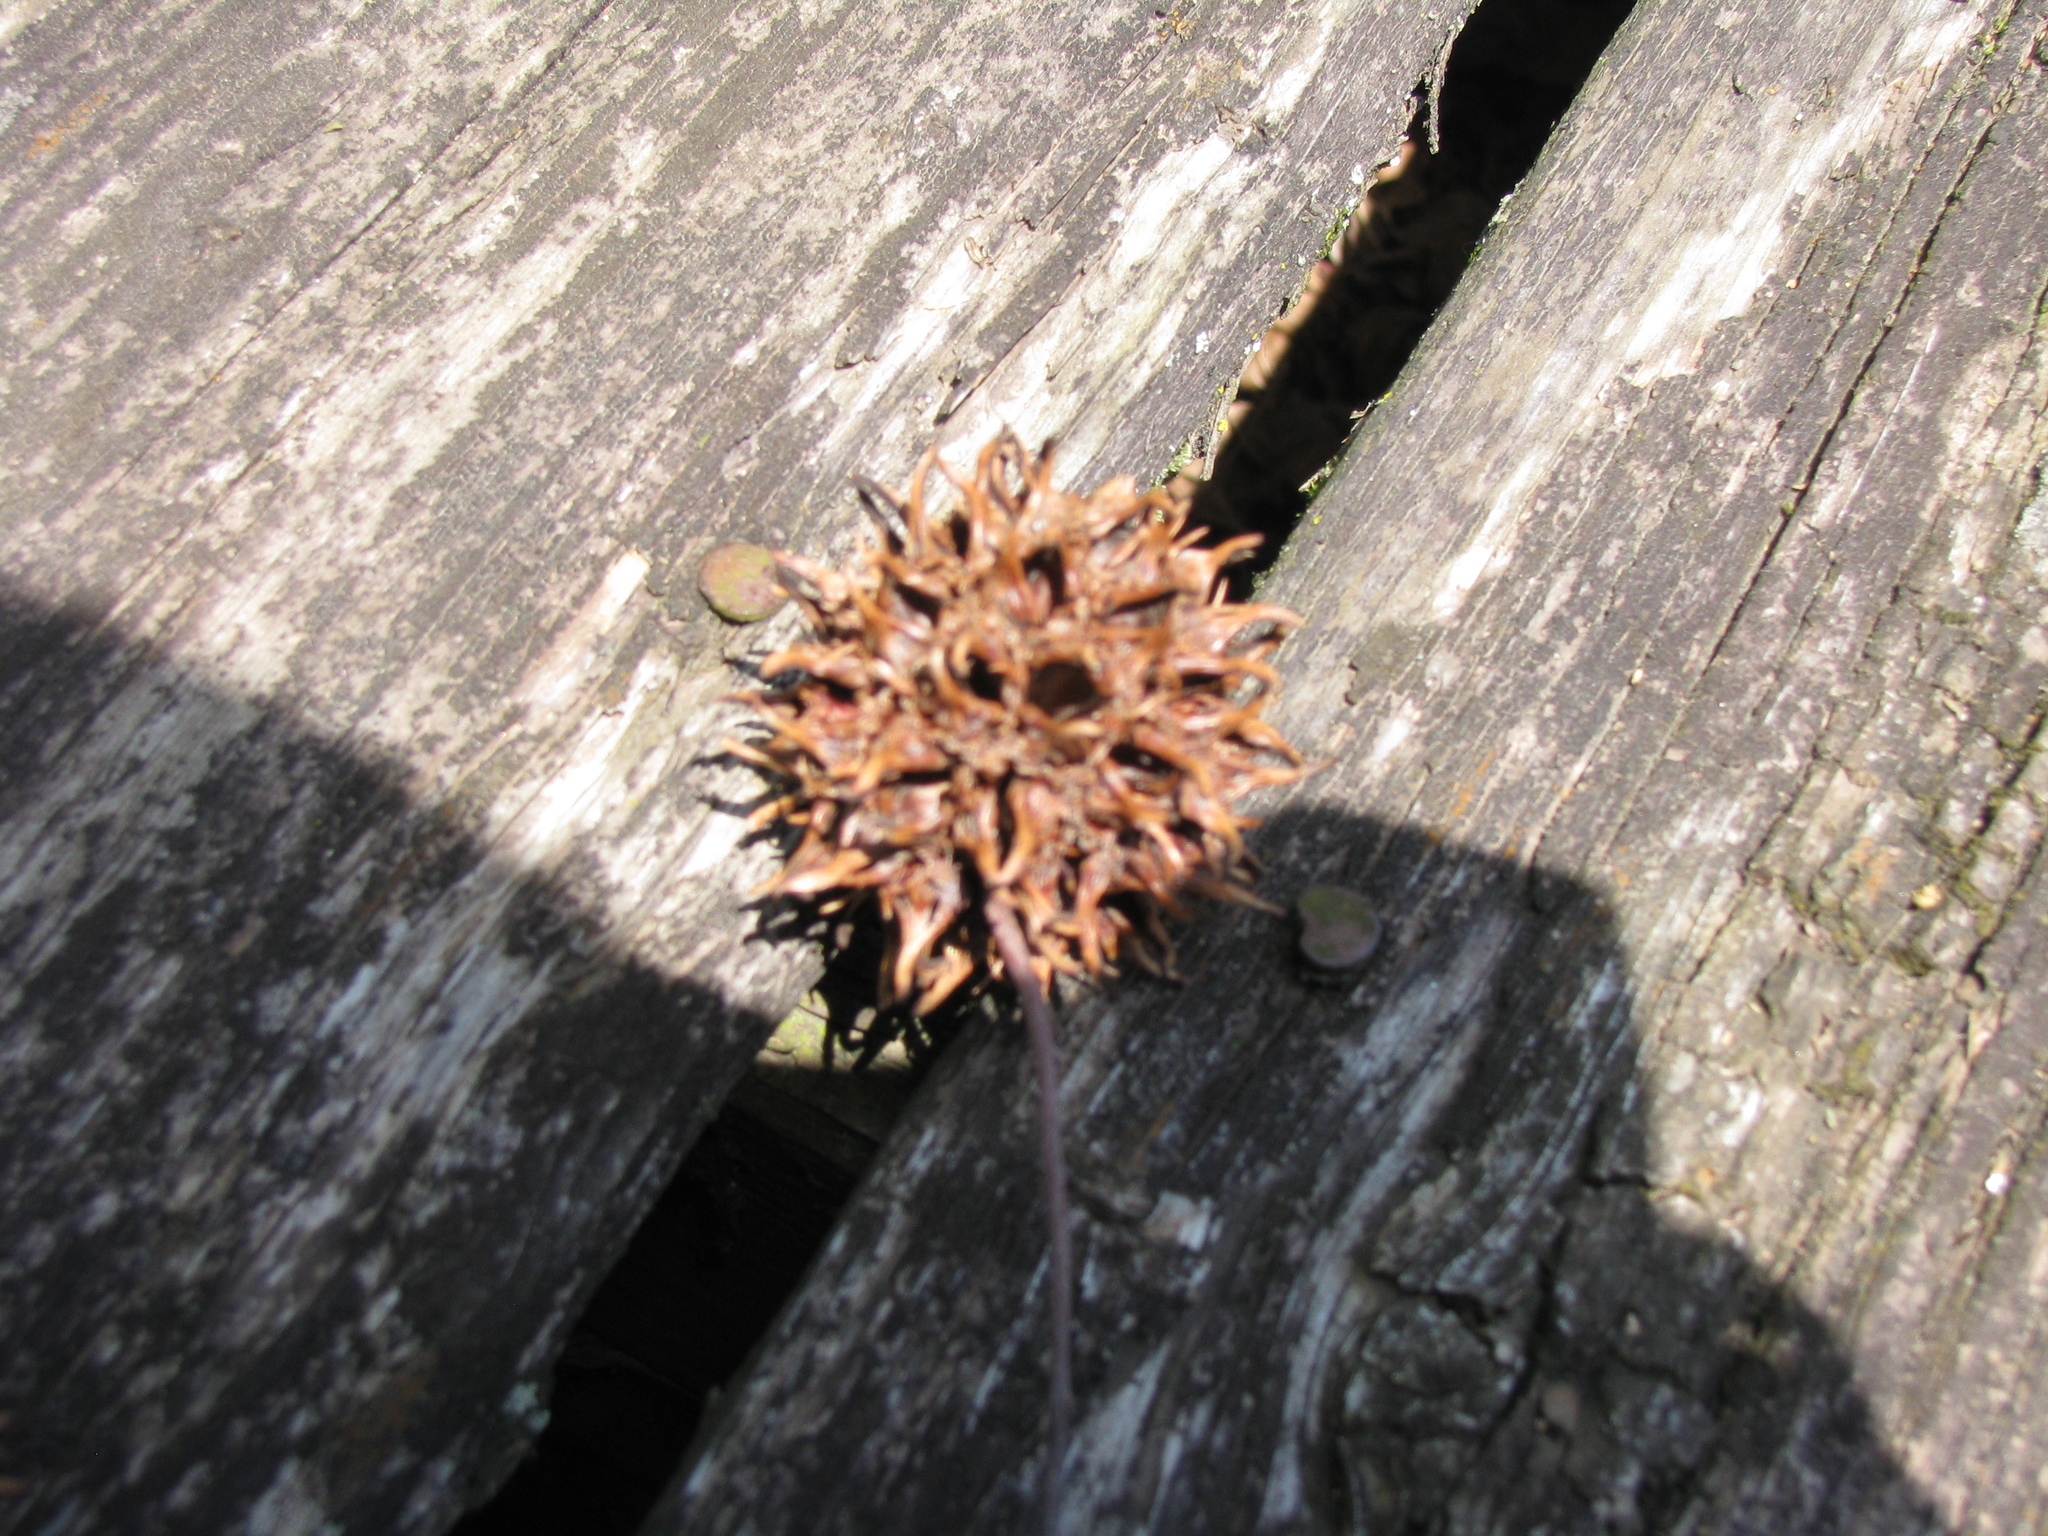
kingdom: Plantae
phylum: Tracheophyta
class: Magnoliopsida
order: Saxifragales
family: Altingiaceae
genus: Liquidambar
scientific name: Liquidambar styraciflua
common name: Sweet gum
